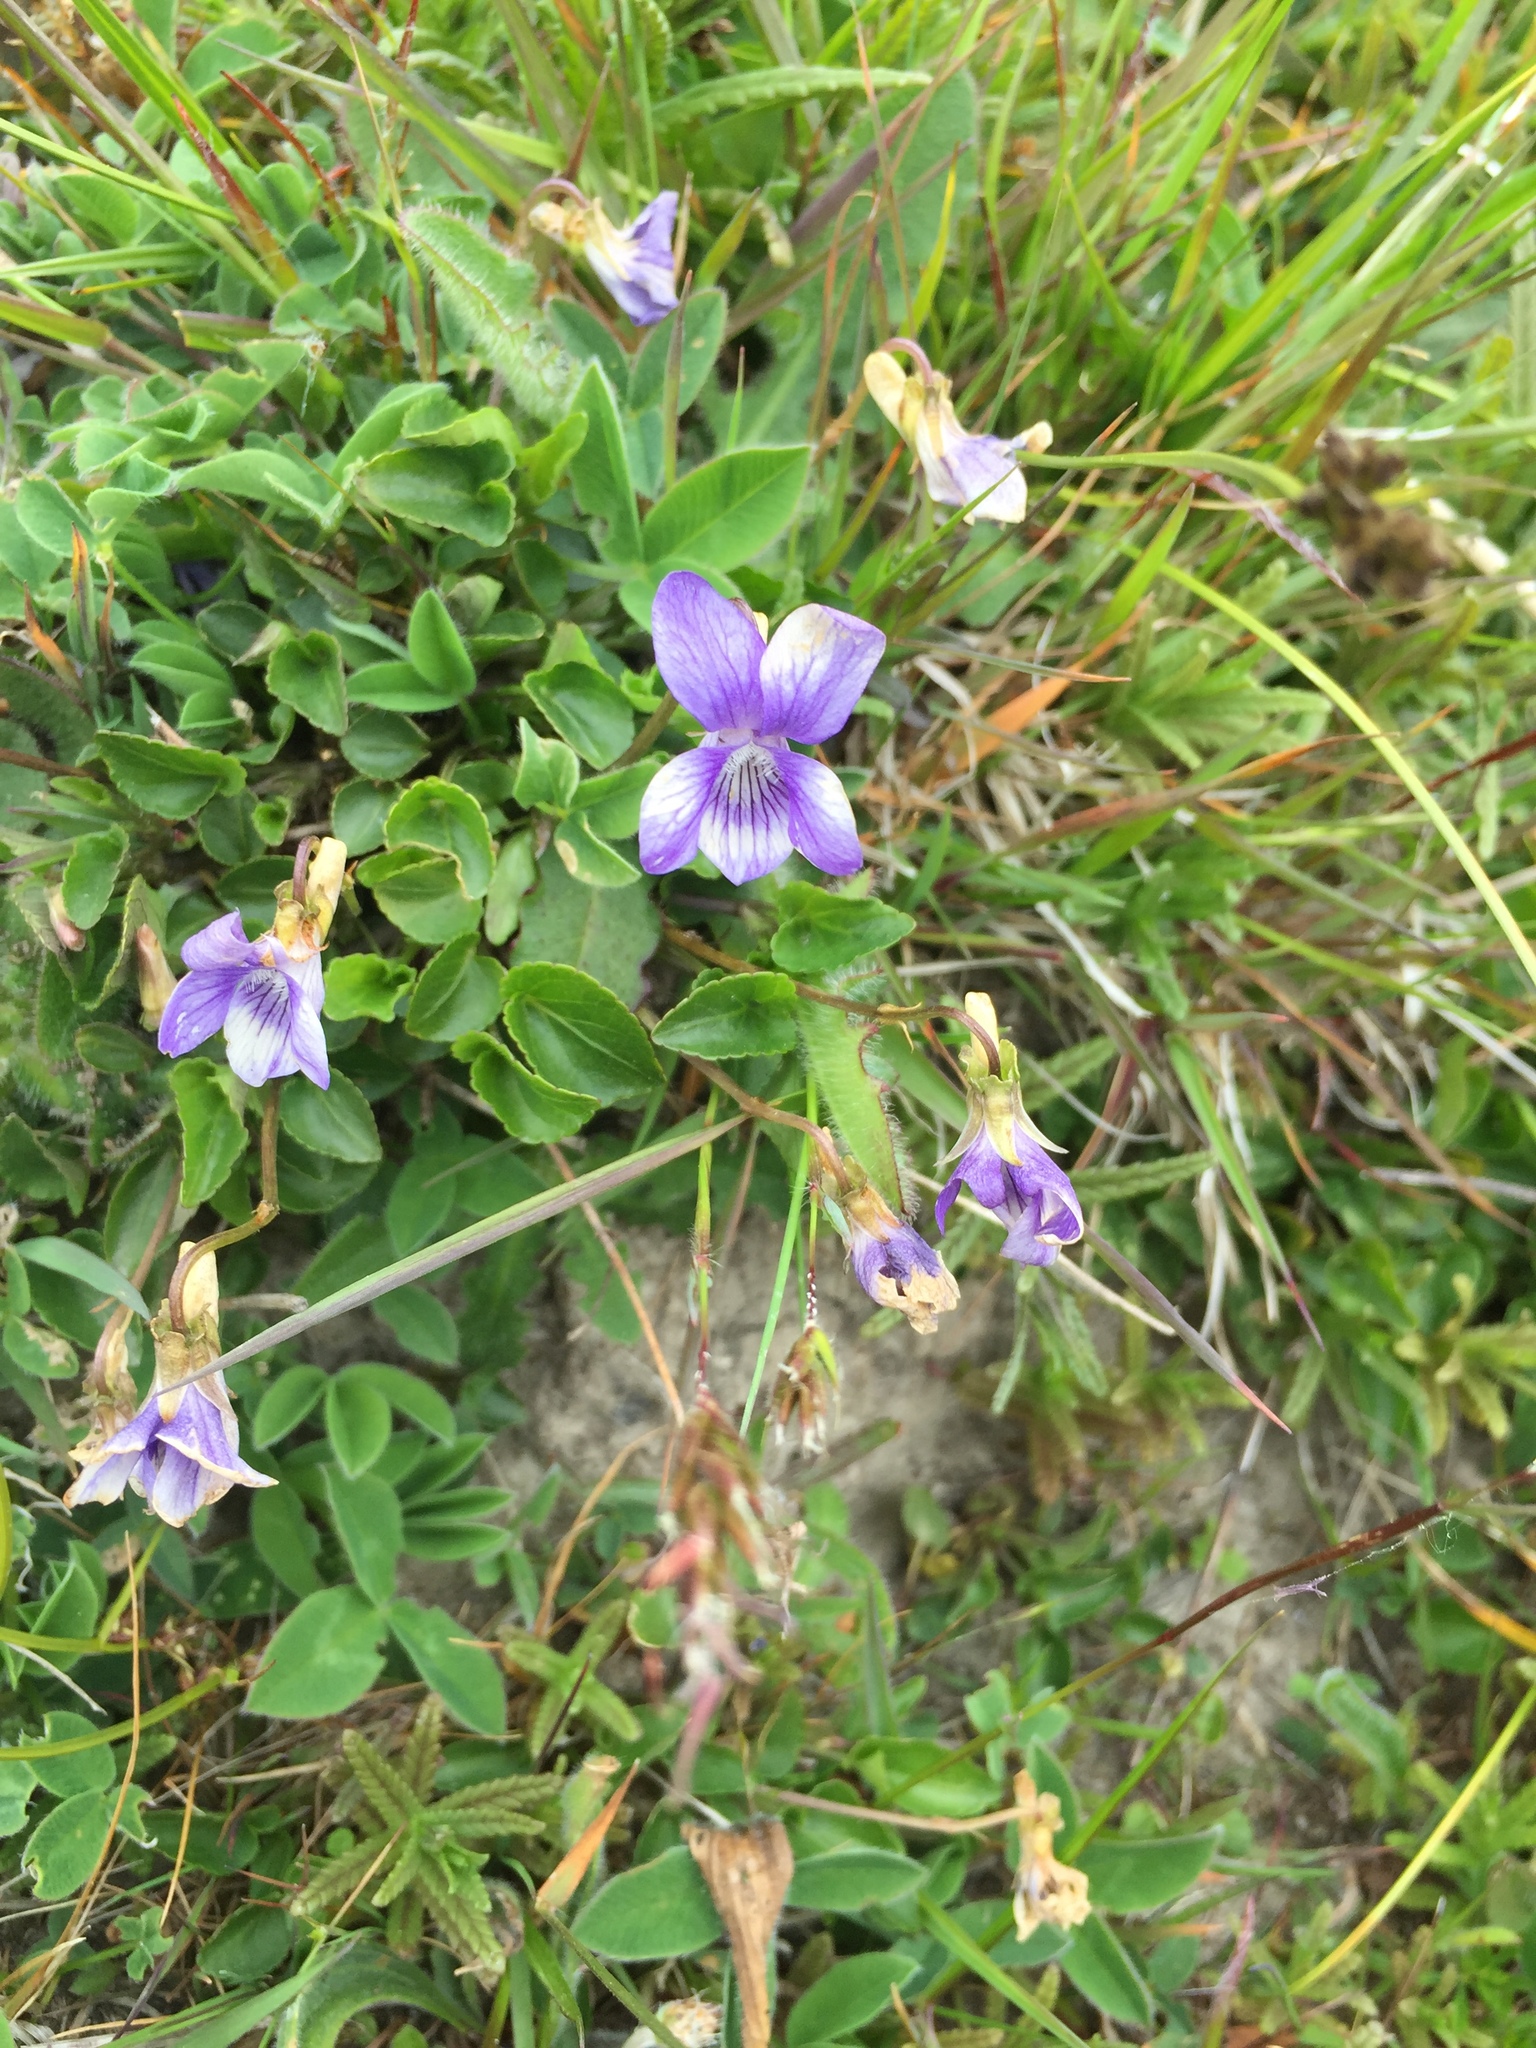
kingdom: Plantae
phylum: Tracheophyta
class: Magnoliopsida
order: Malpighiales
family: Violaceae
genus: Viola
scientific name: Viola canina
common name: Heath dog-violet
